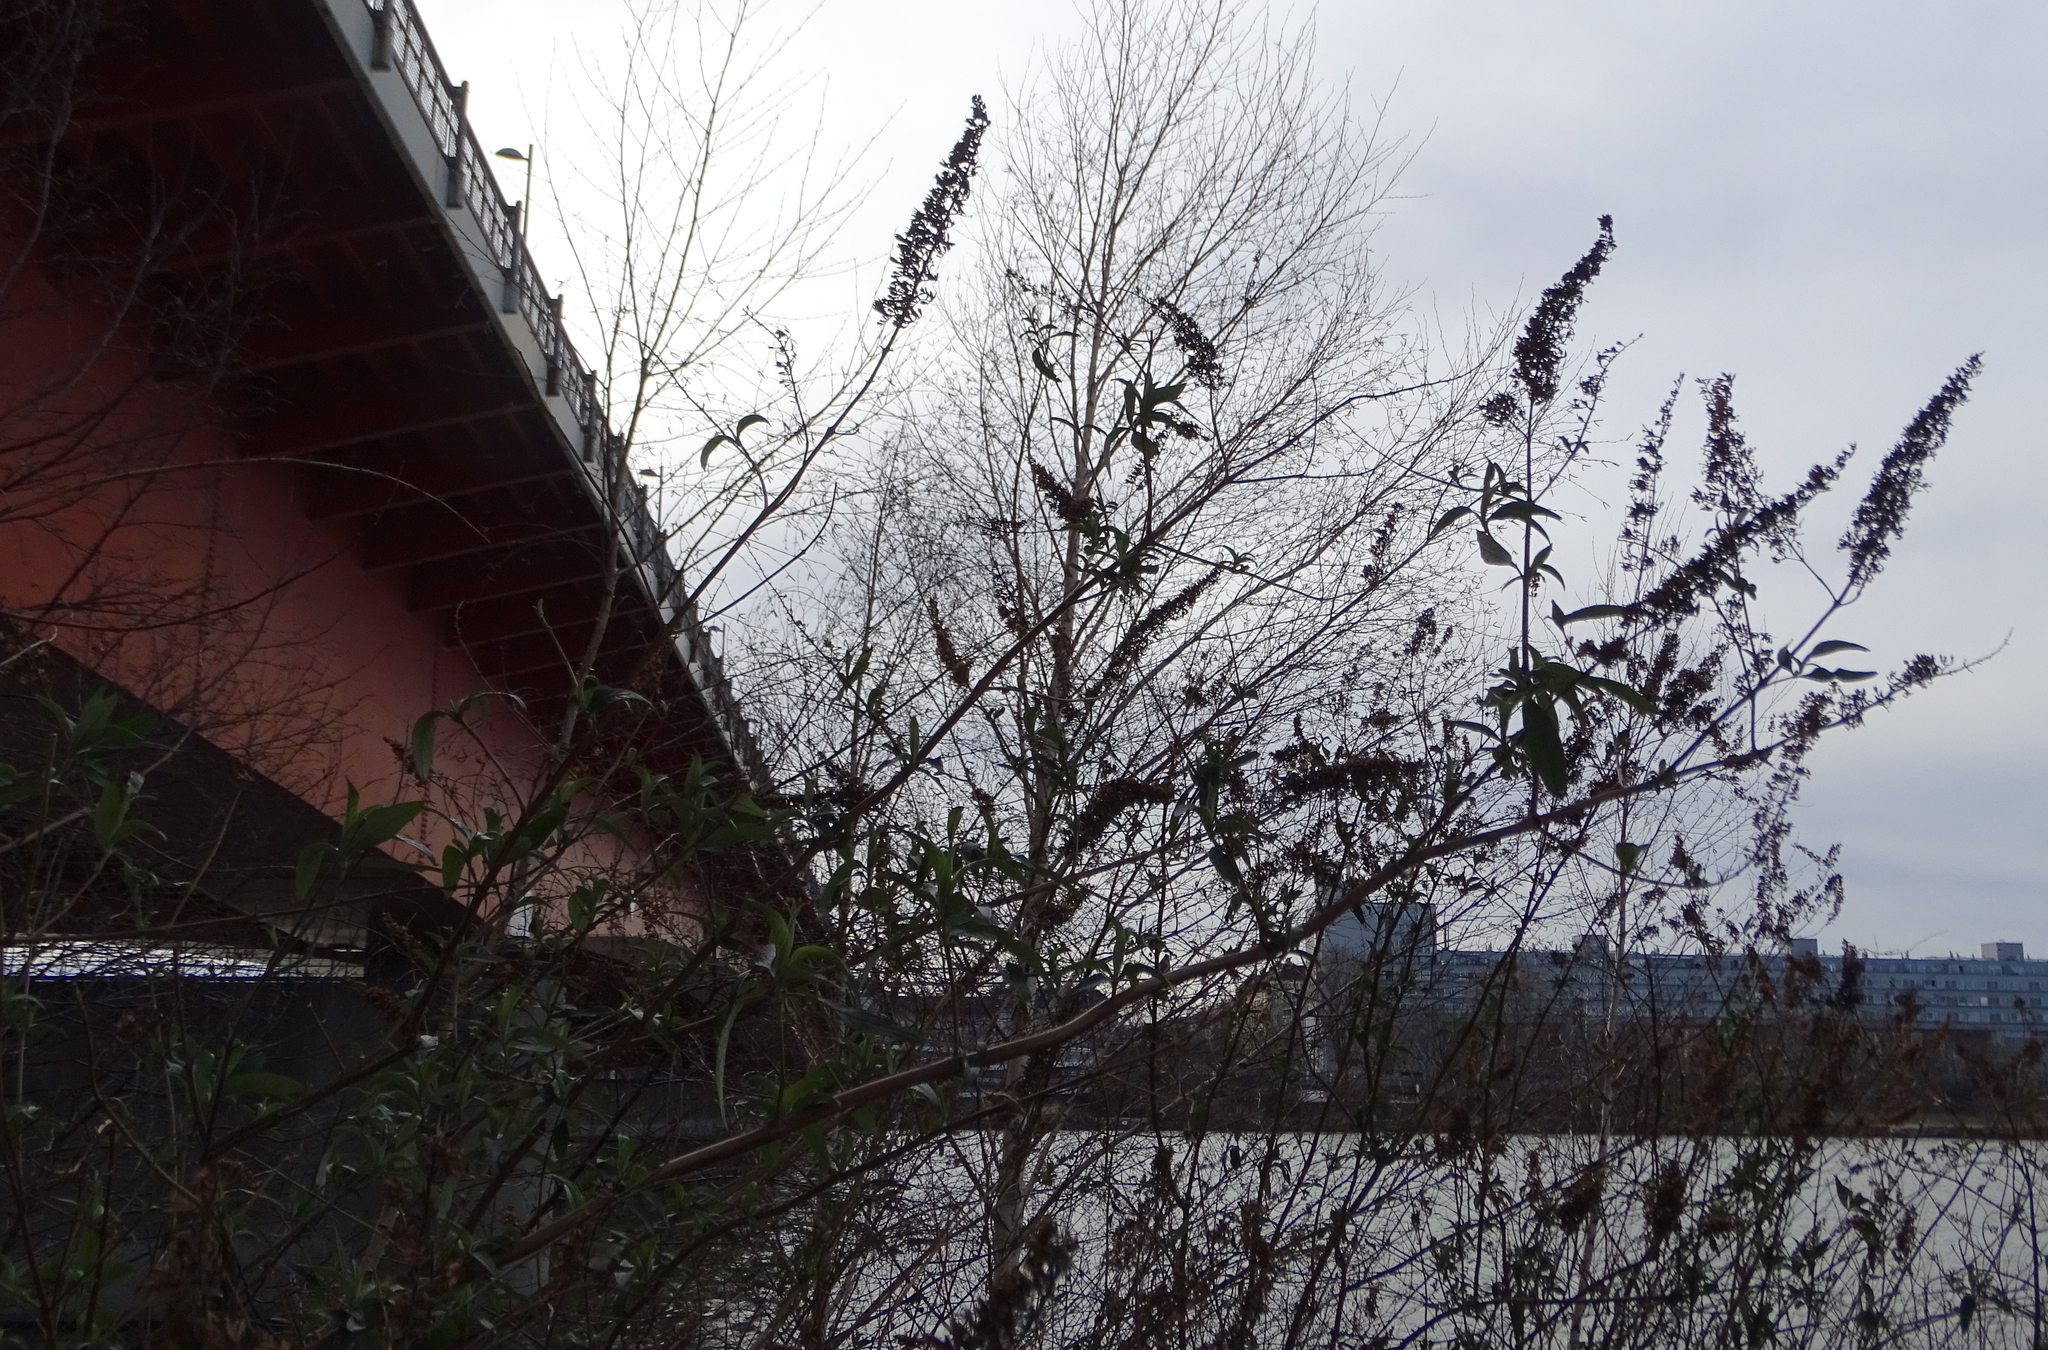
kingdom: Plantae
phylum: Tracheophyta
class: Magnoliopsida
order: Lamiales
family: Scrophulariaceae
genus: Buddleja
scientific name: Buddleja davidii
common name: Butterfly-bush
